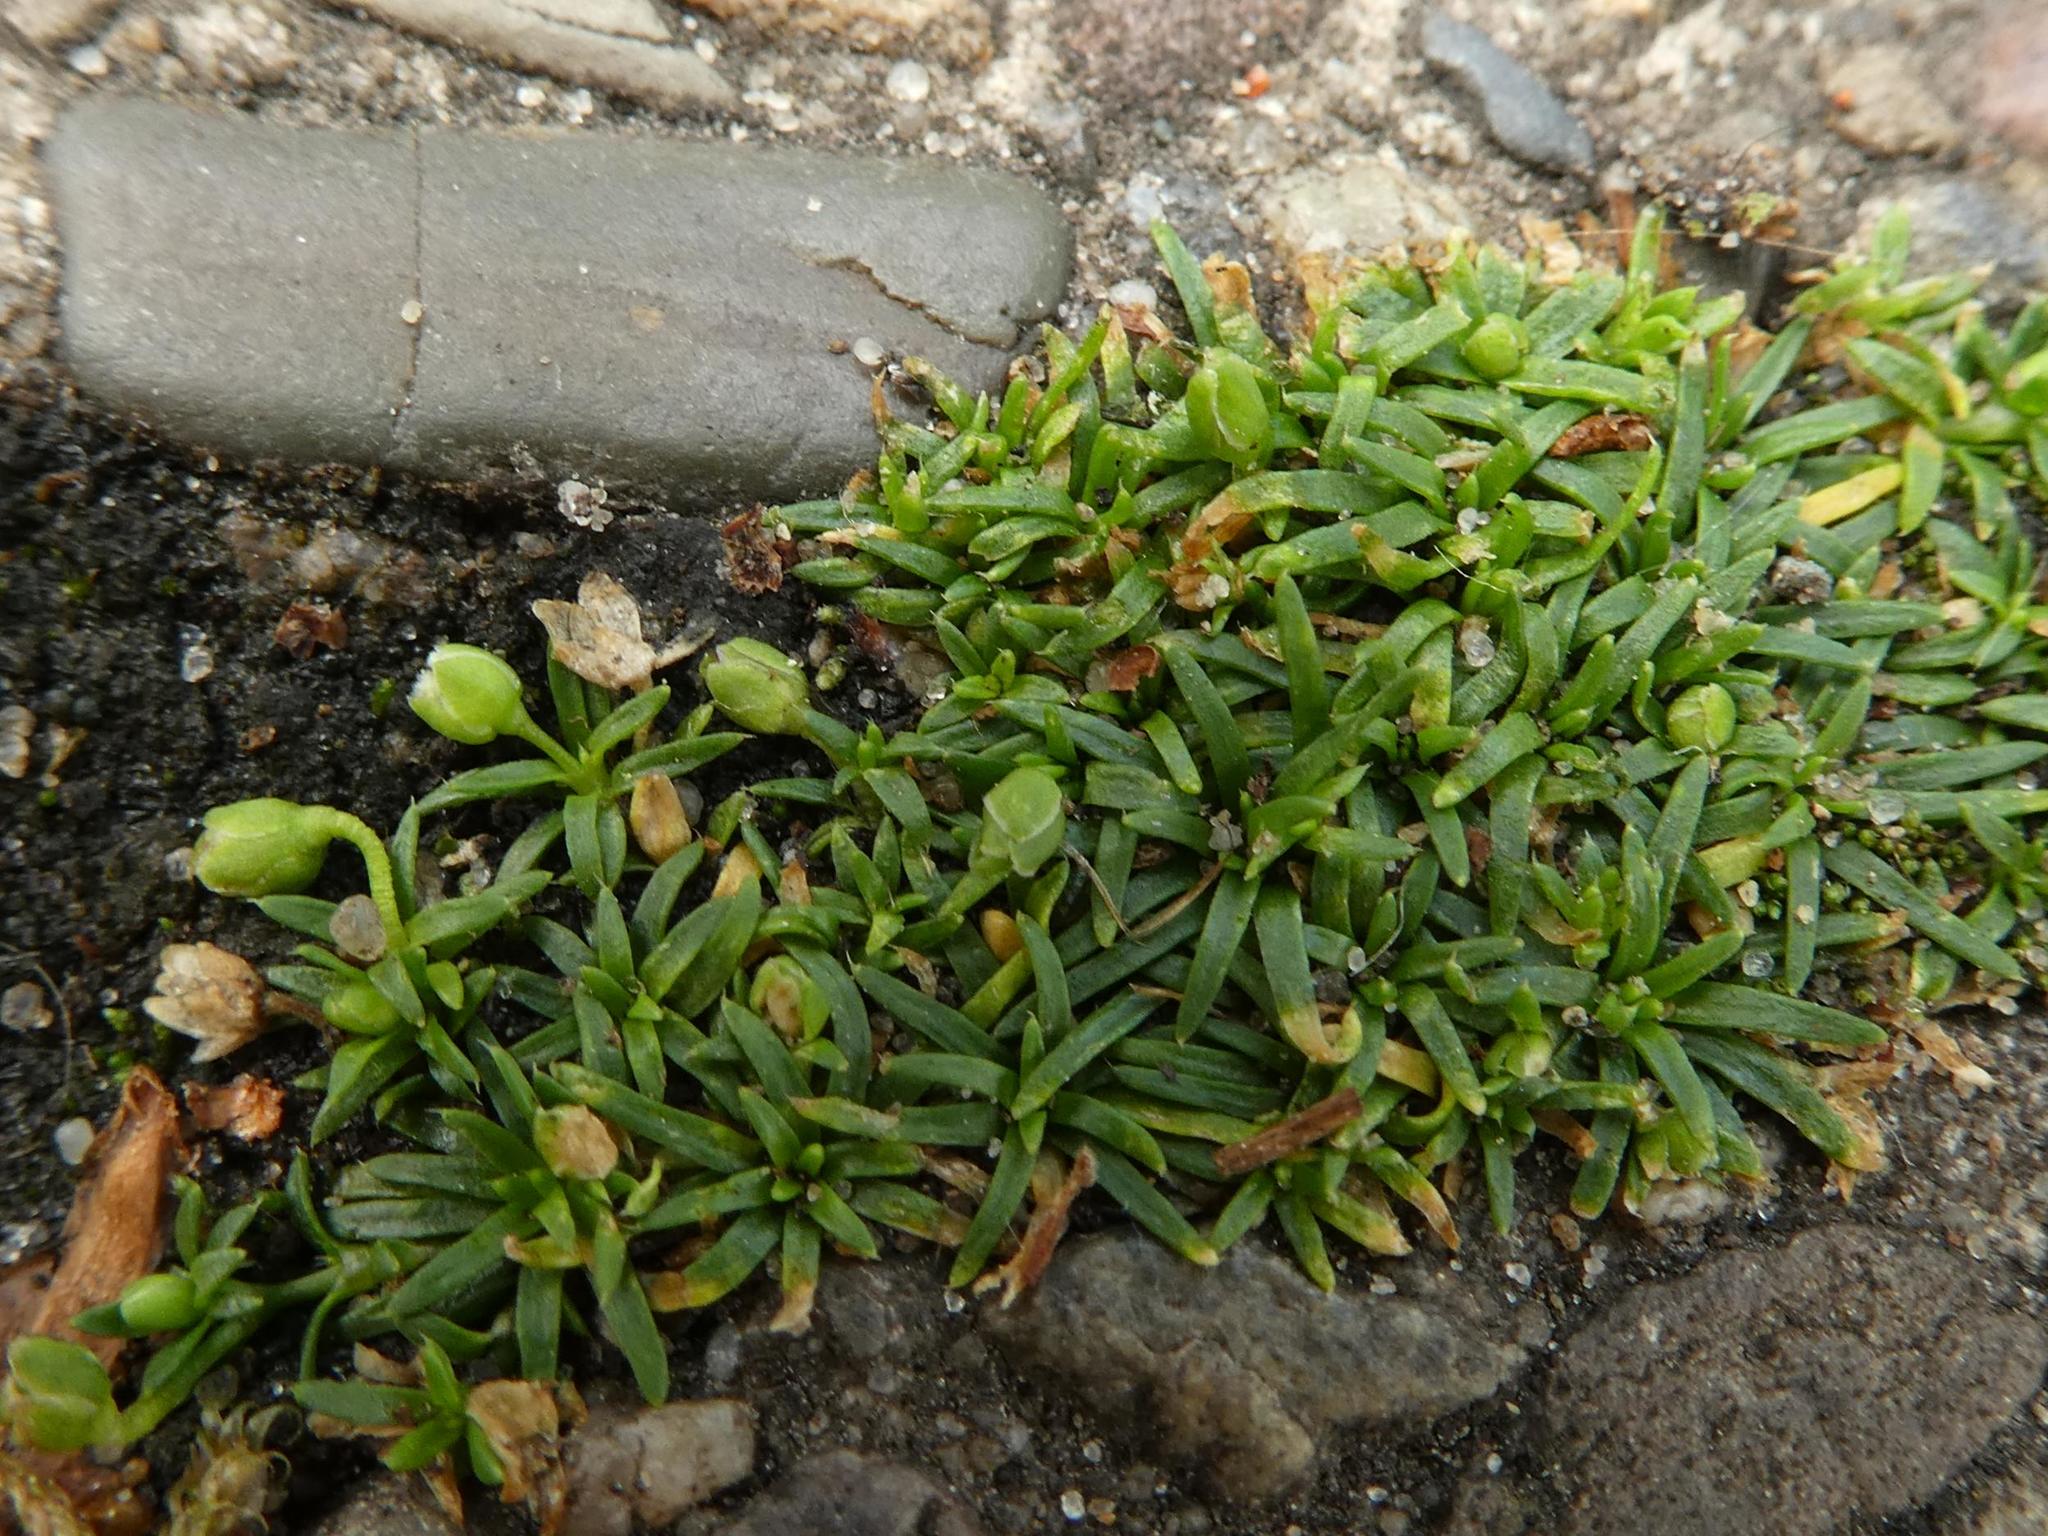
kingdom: Plantae
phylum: Tracheophyta
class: Magnoliopsida
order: Caryophyllales
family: Caryophyllaceae
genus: Sagina
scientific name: Sagina procumbens
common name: Procumbent pearlwort
